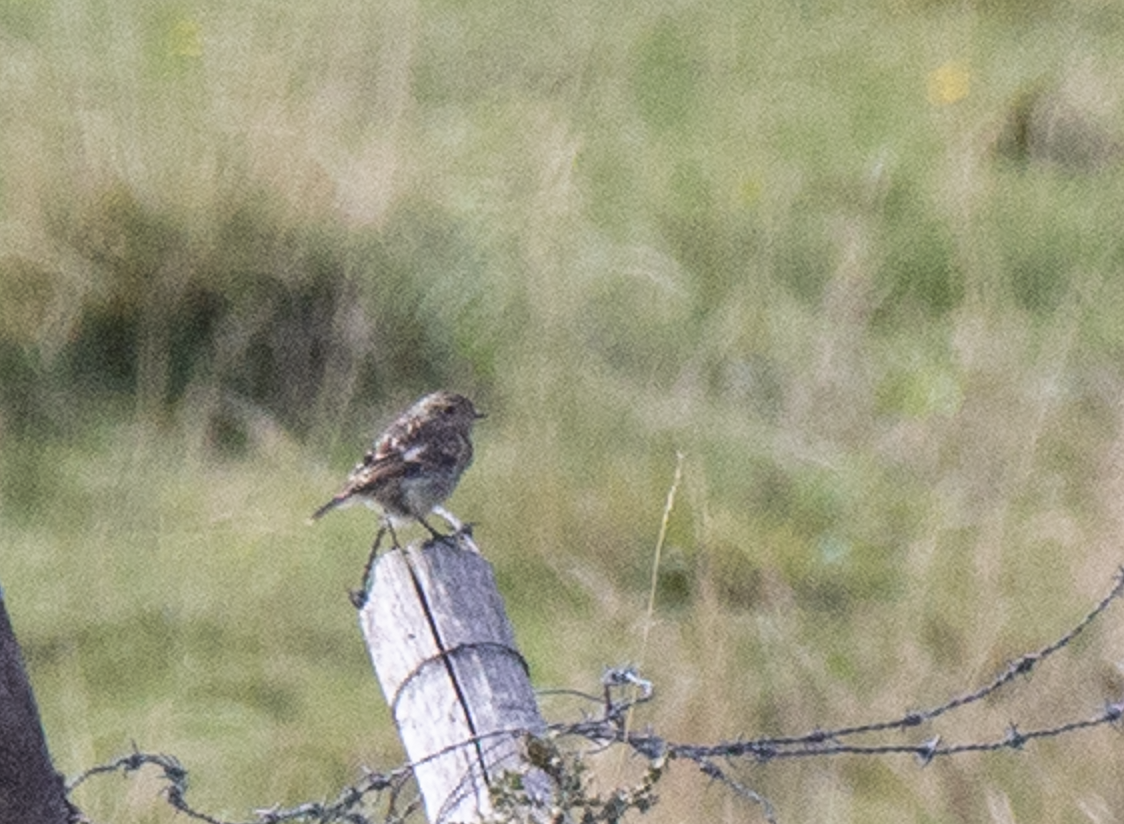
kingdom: Animalia
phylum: Chordata
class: Aves
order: Passeriformes
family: Muscicapidae
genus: Saxicola
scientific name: Saxicola rubicola
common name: European stonechat
